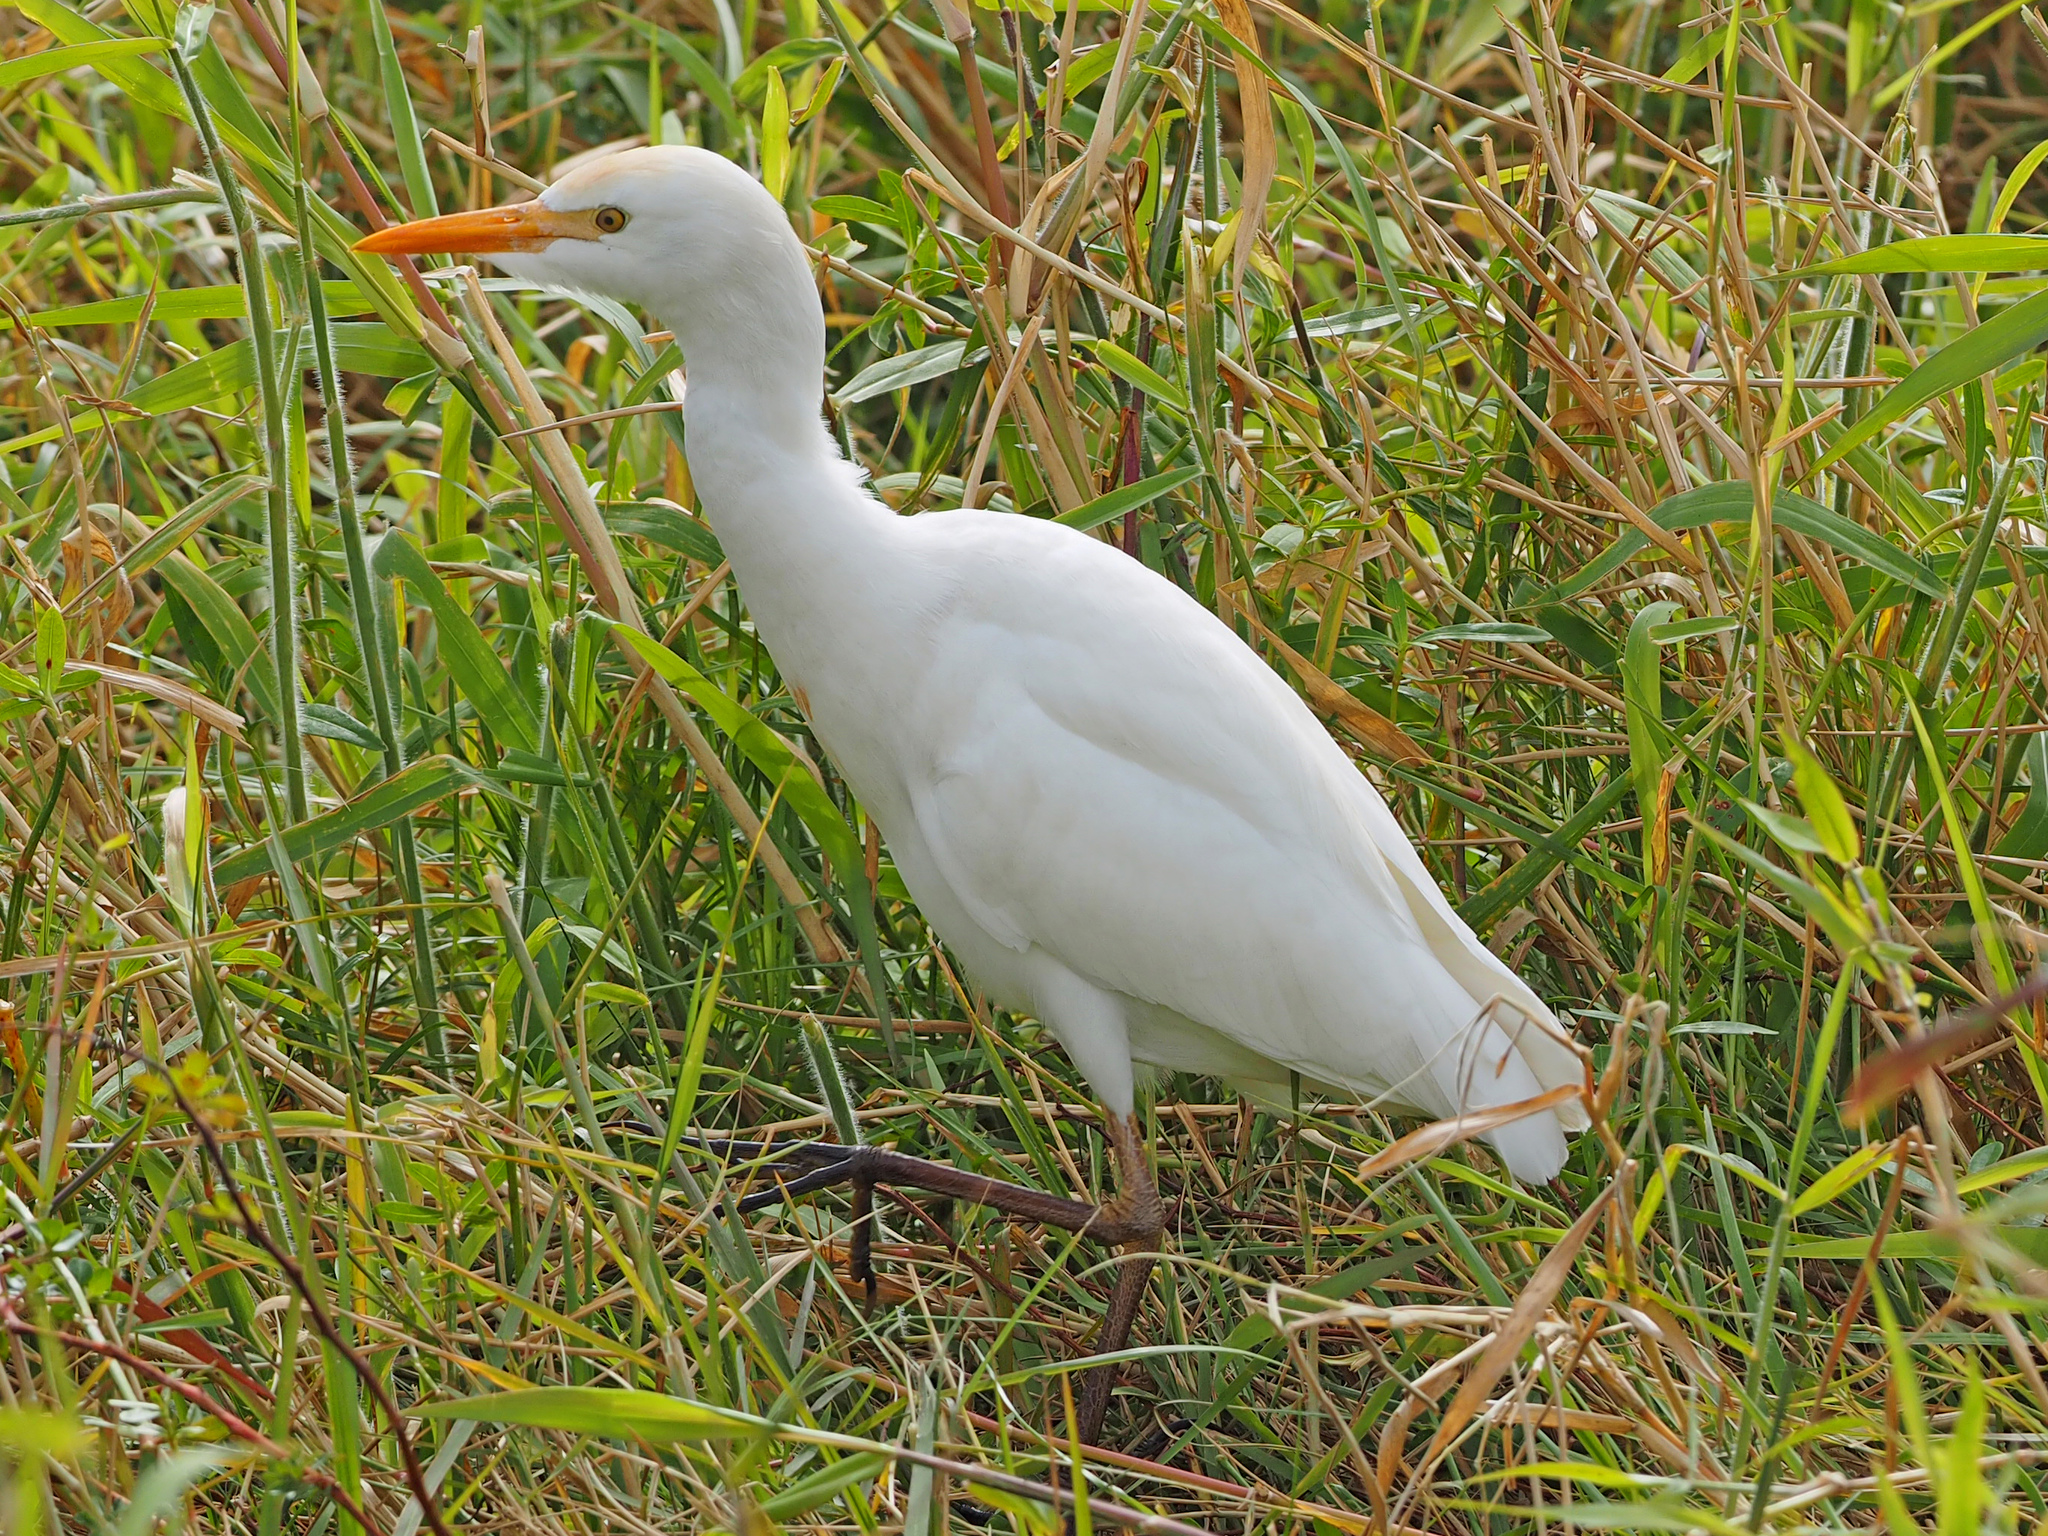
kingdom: Animalia
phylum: Chordata
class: Aves
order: Pelecaniformes
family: Ardeidae
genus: Bubulcus
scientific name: Bubulcus ibis
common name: Cattle egret
